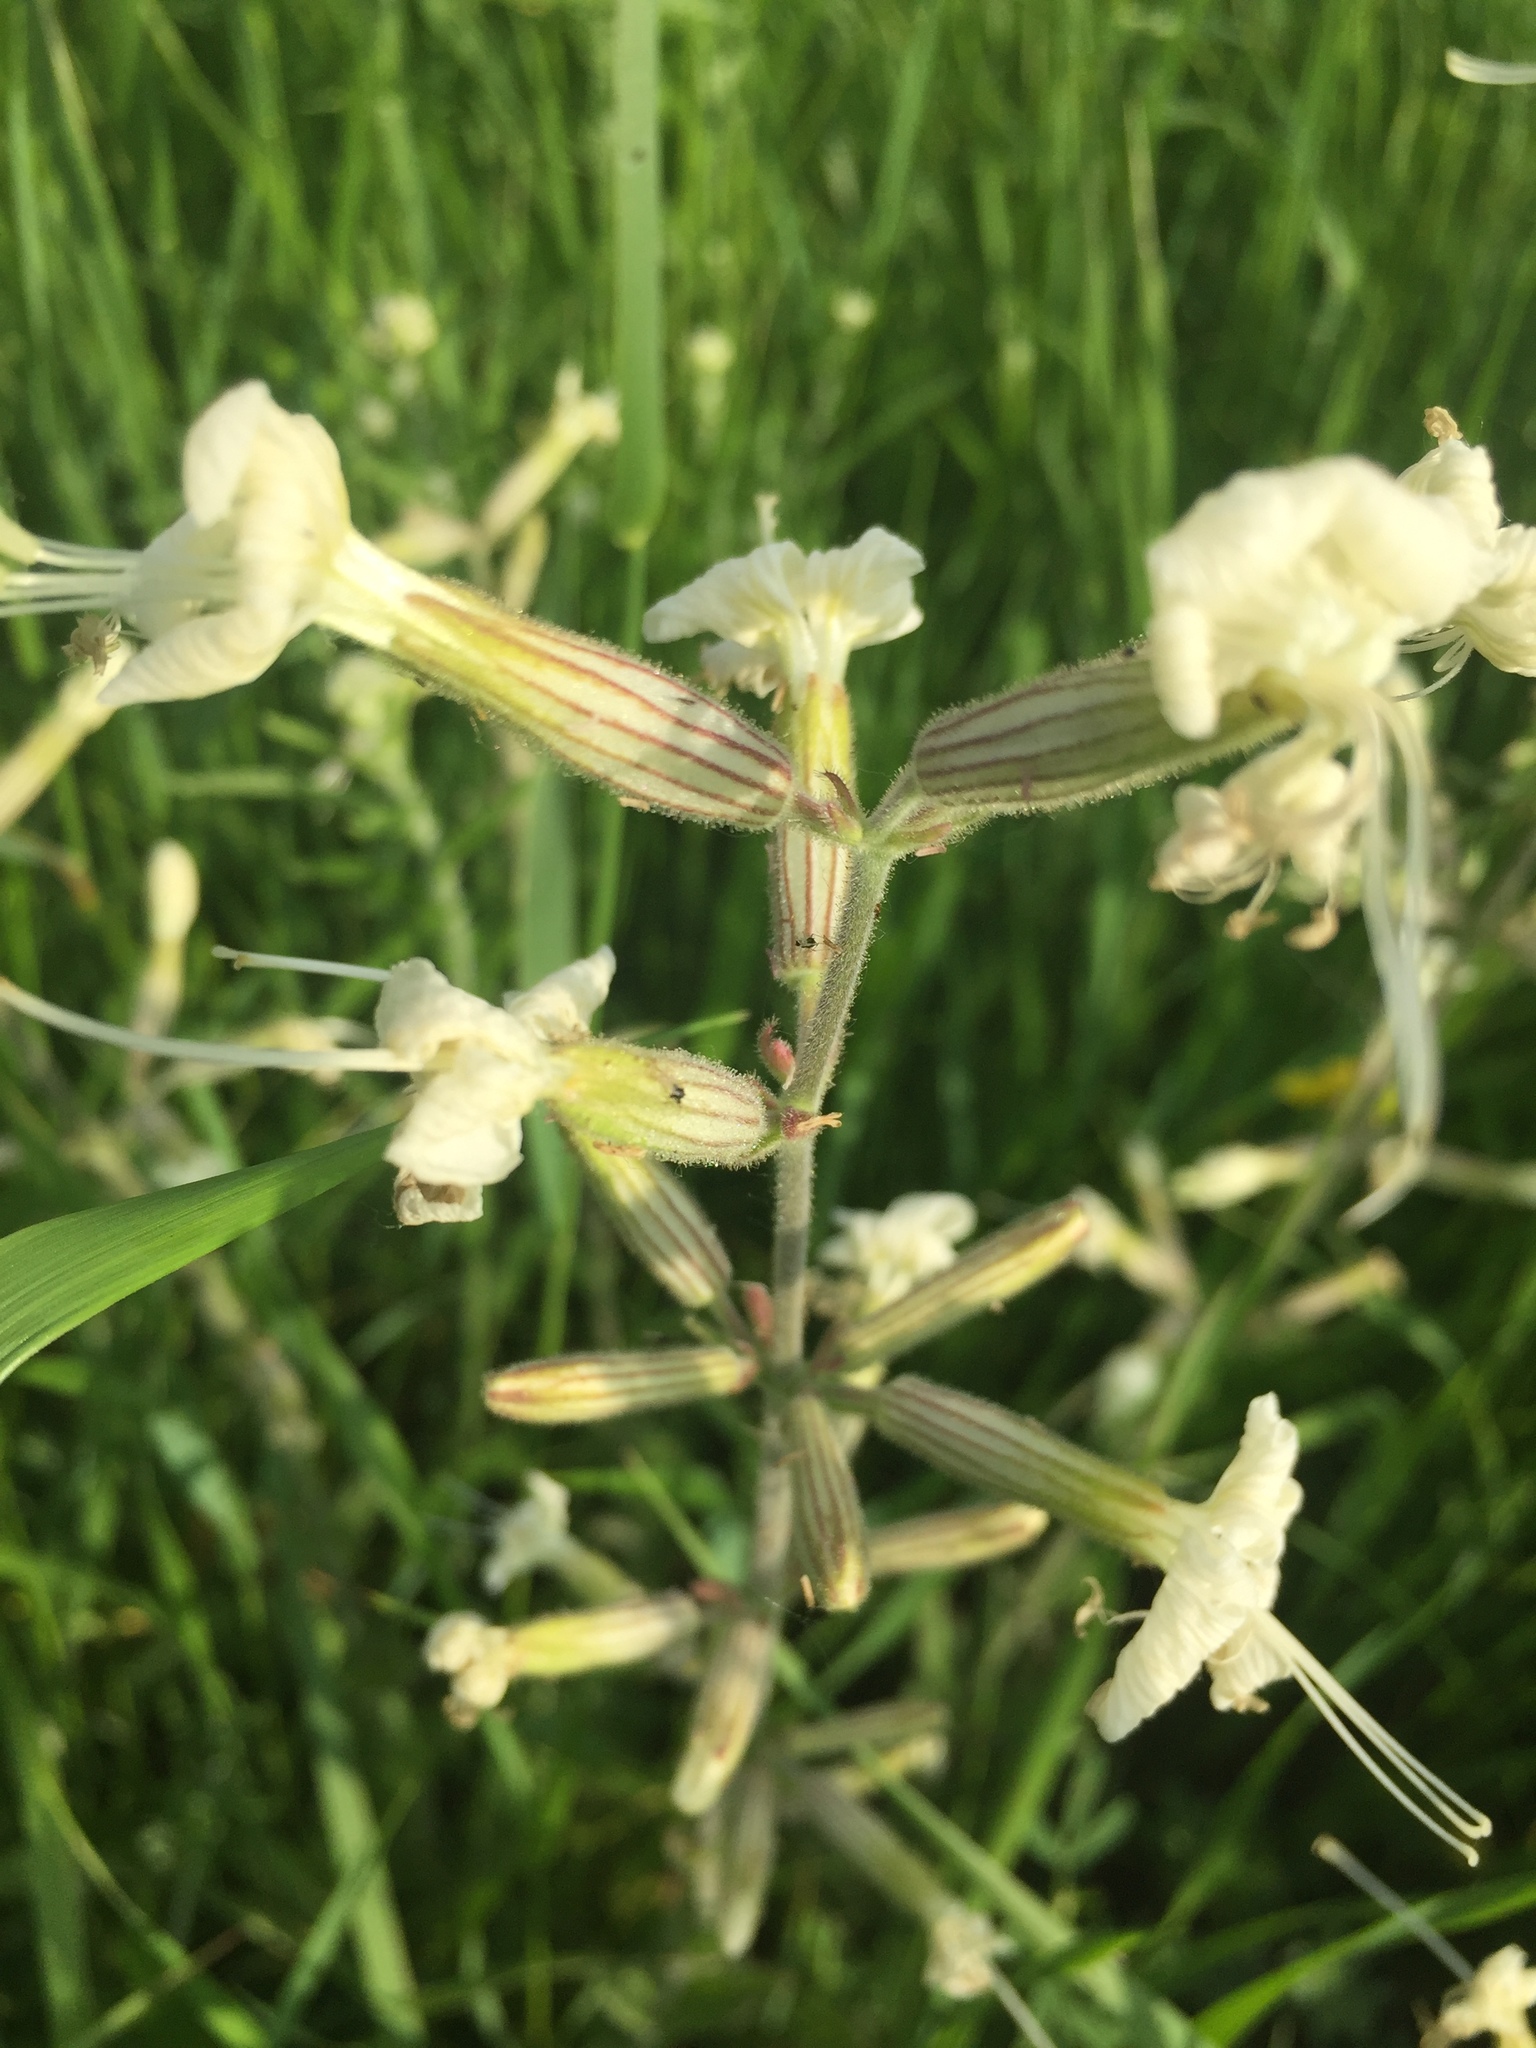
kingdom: Plantae
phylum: Tracheophyta
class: Magnoliopsida
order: Caryophyllales
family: Caryophyllaceae
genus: Silene
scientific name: Silene viscosa
